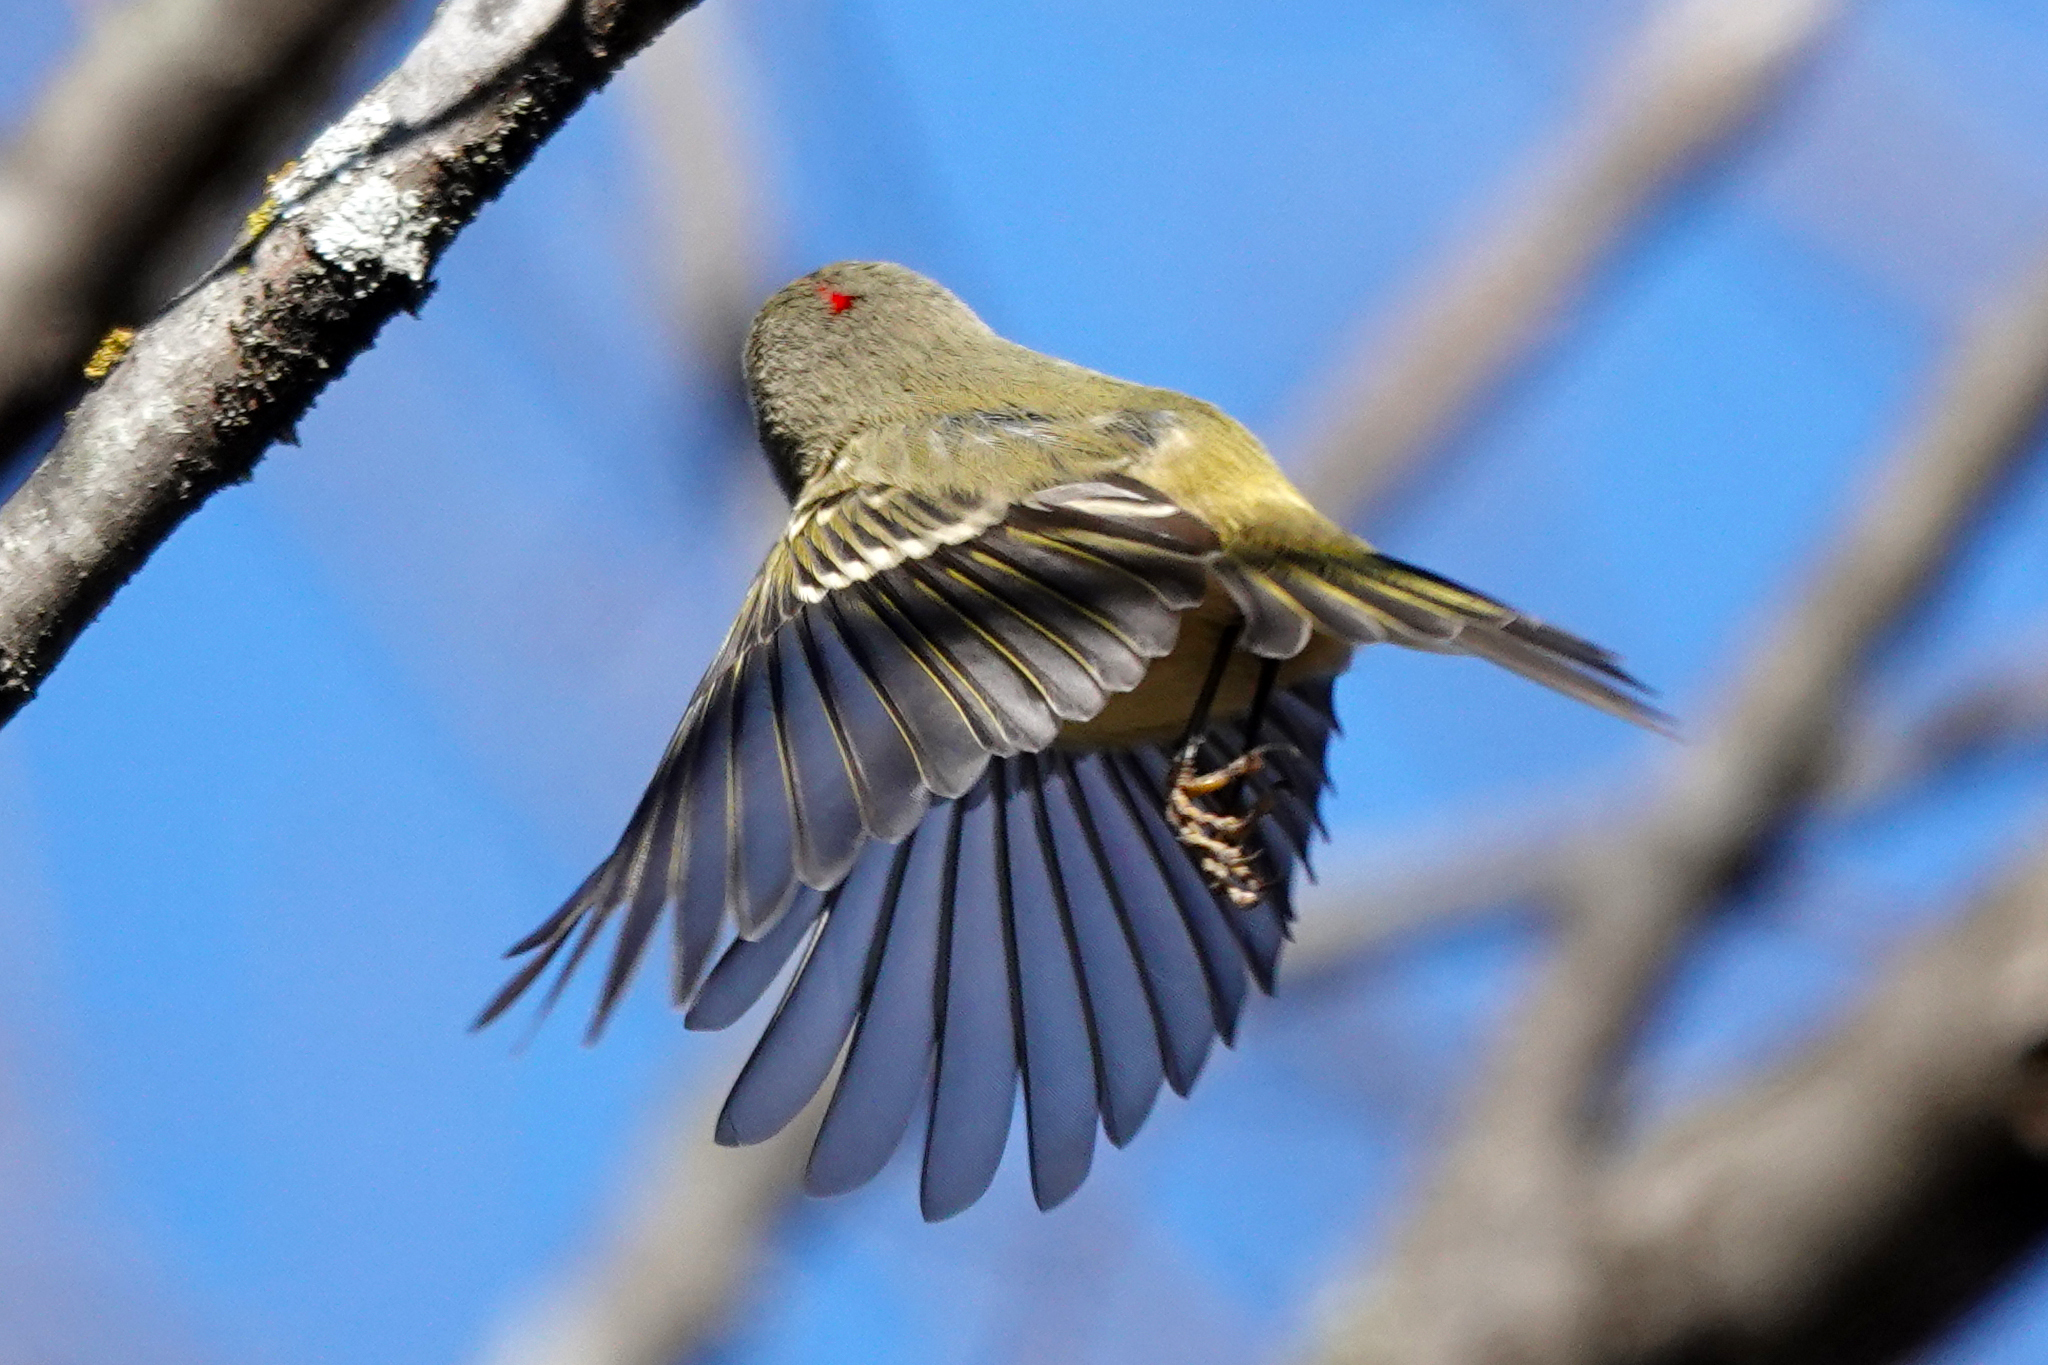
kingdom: Animalia
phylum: Chordata
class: Aves
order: Passeriformes
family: Regulidae
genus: Regulus
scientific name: Regulus calendula
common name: Ruby-crowned kinglet
